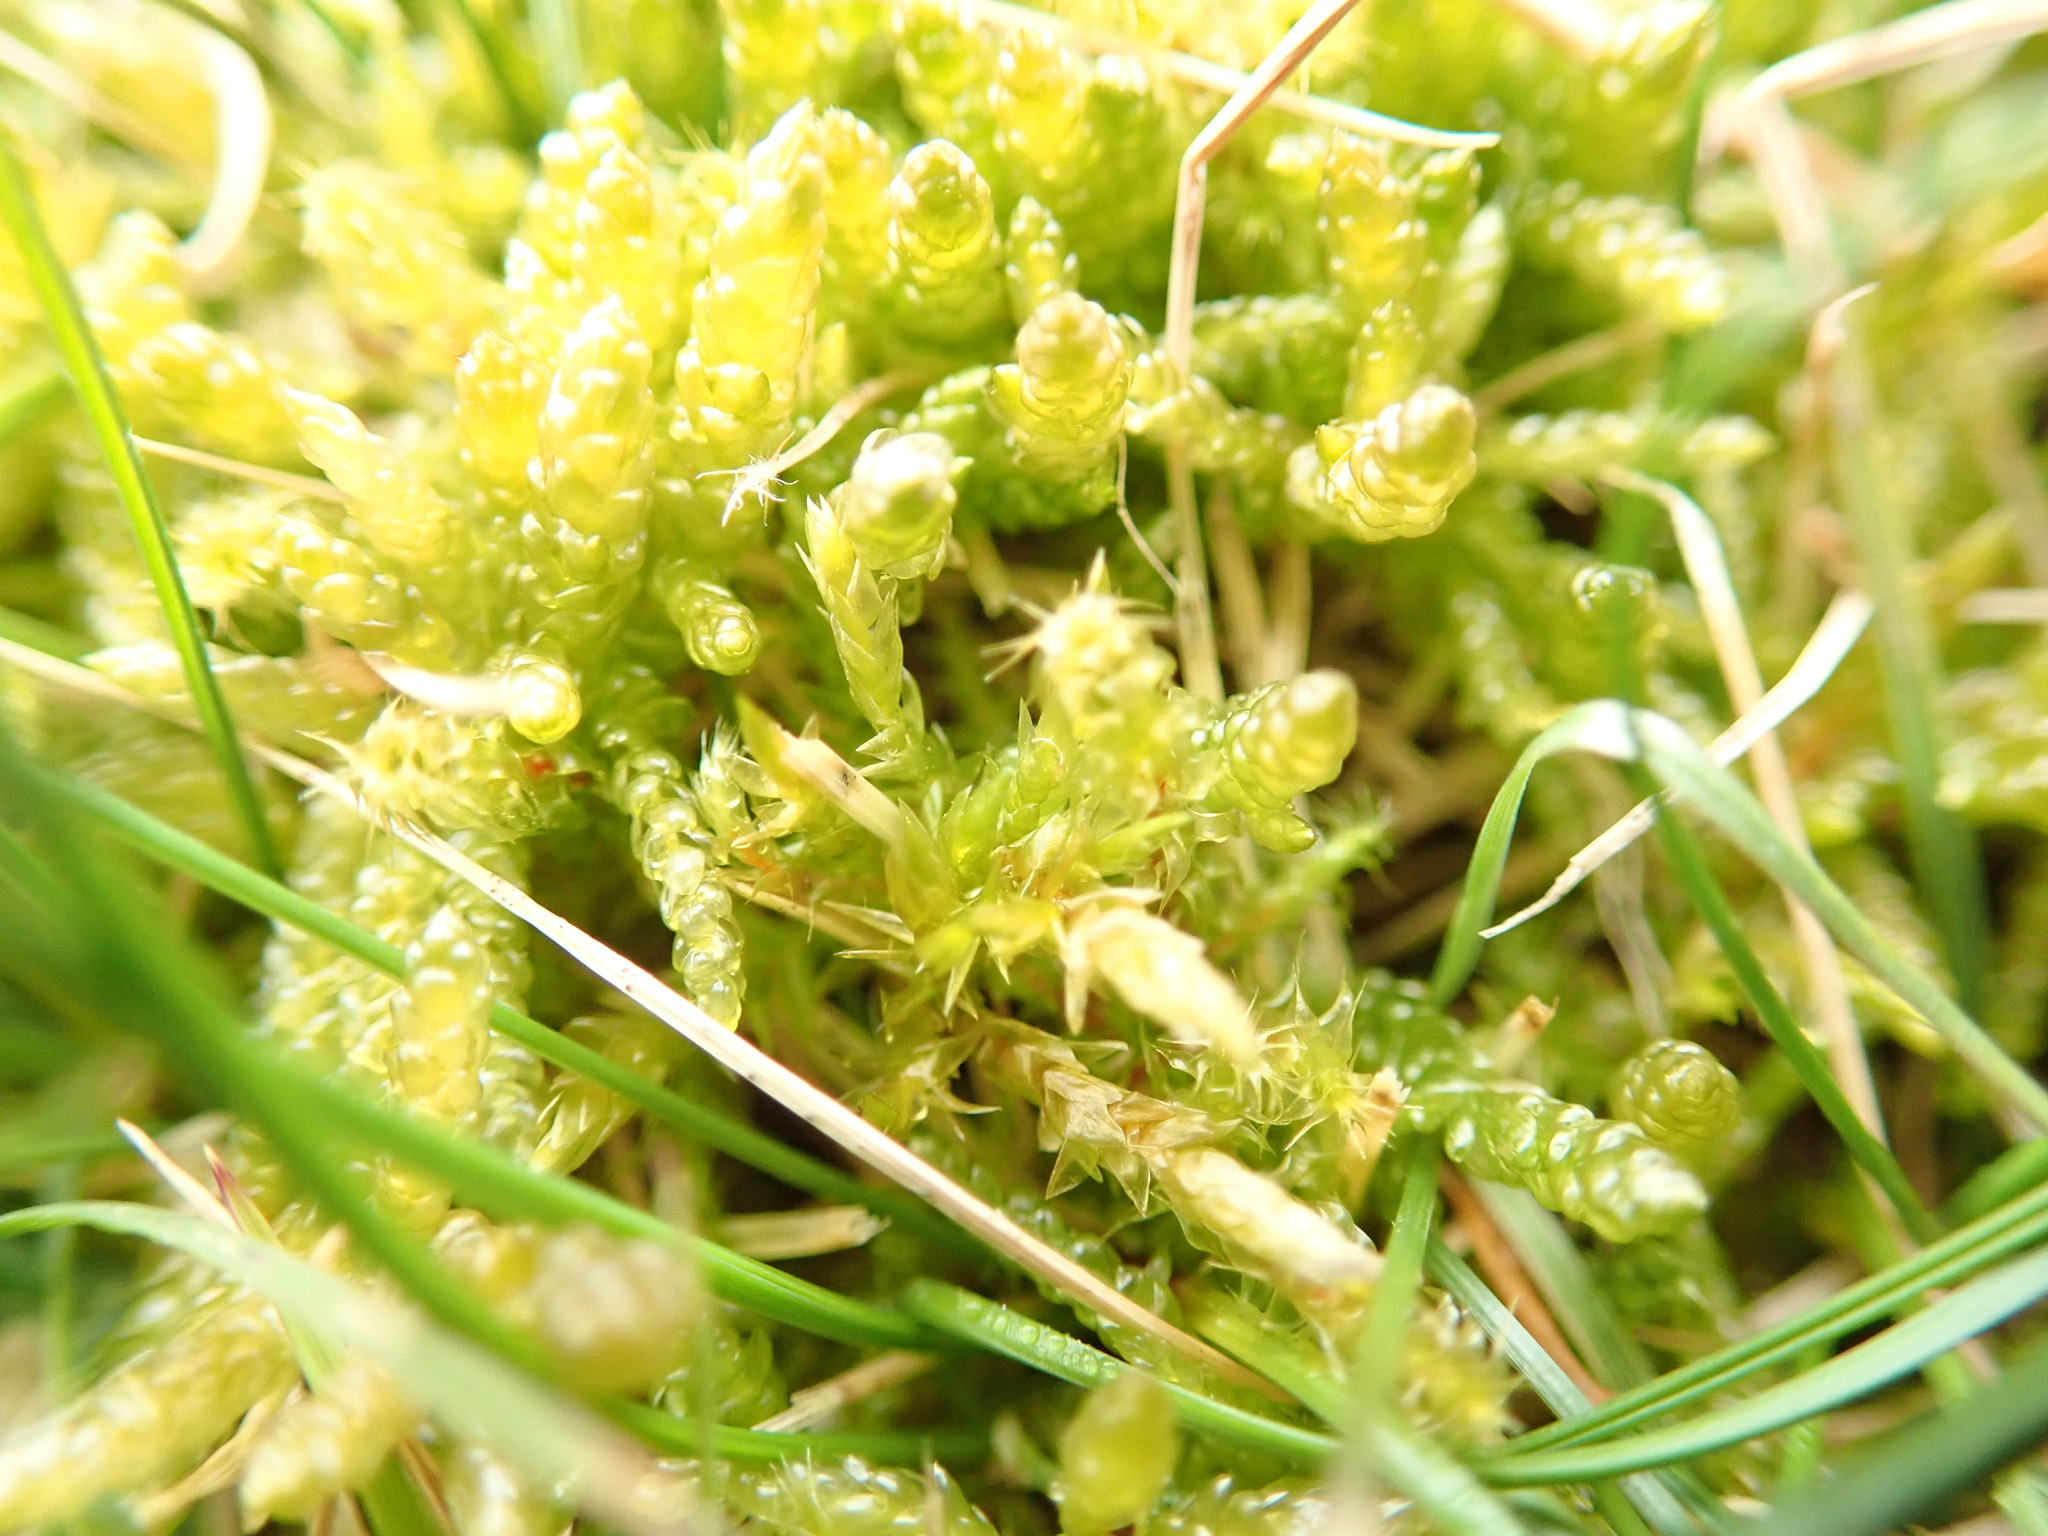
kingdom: Plantae
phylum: Bryophyta
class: Bryopsida
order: Hypnales
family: Hylocomiaceae
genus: Rhytidiadelphus
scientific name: Rhytidiadelphus squarrosus
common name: Springy turf-moss
